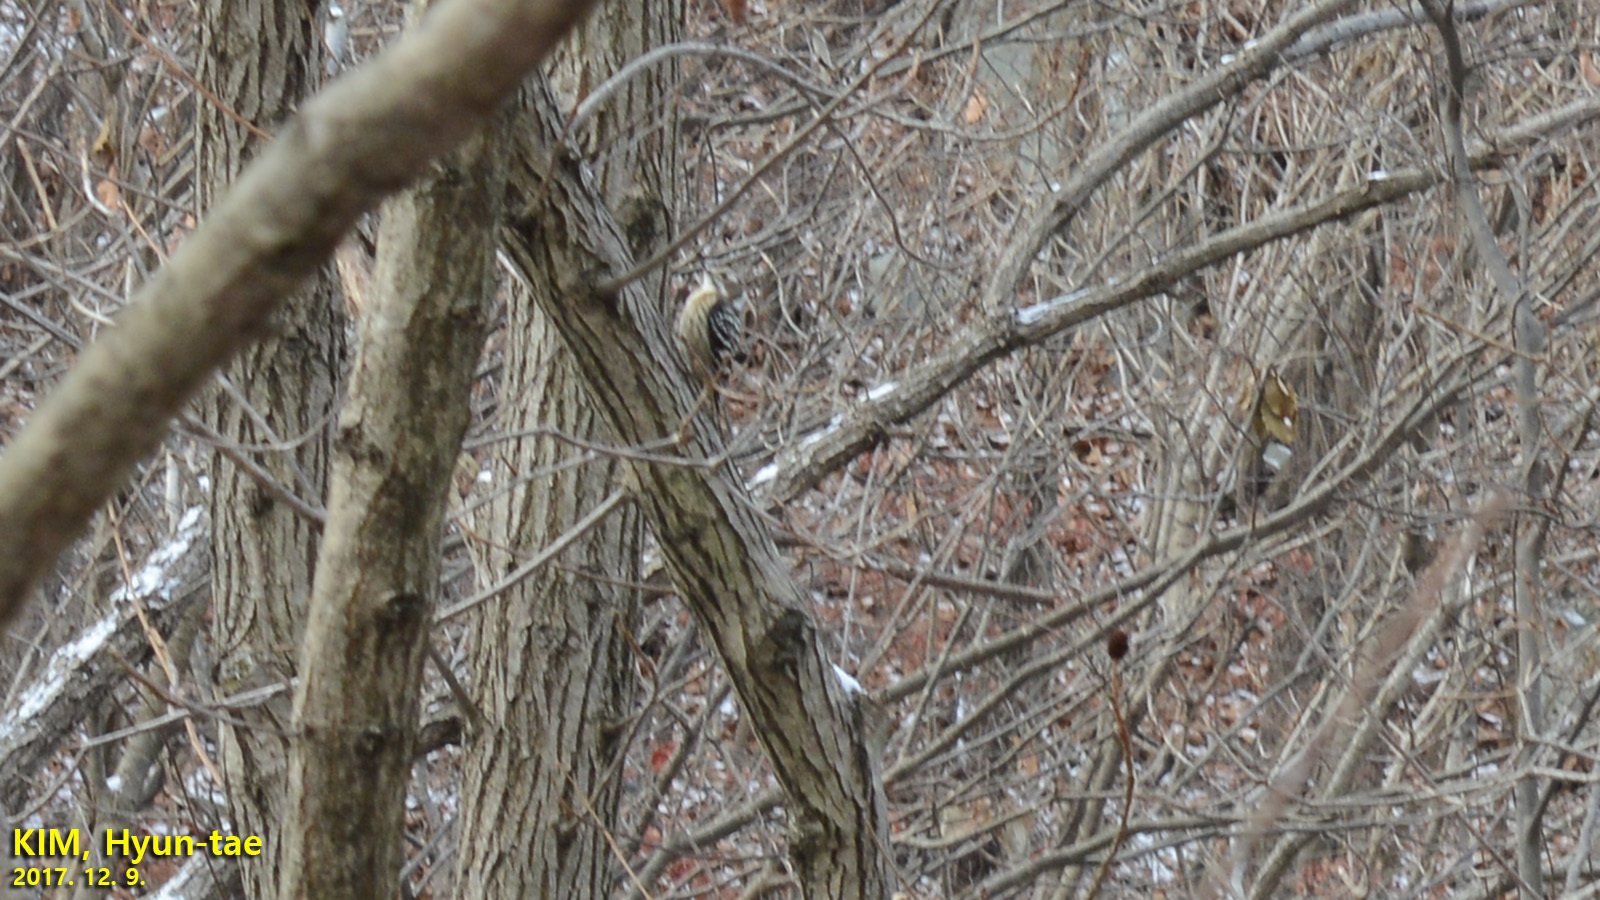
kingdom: Animalia
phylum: Chordata
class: Aves
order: Piciformes
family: Picidae
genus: Yungipicus
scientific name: Yungipicus kizuki
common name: Japanese pygmy woodpecker
